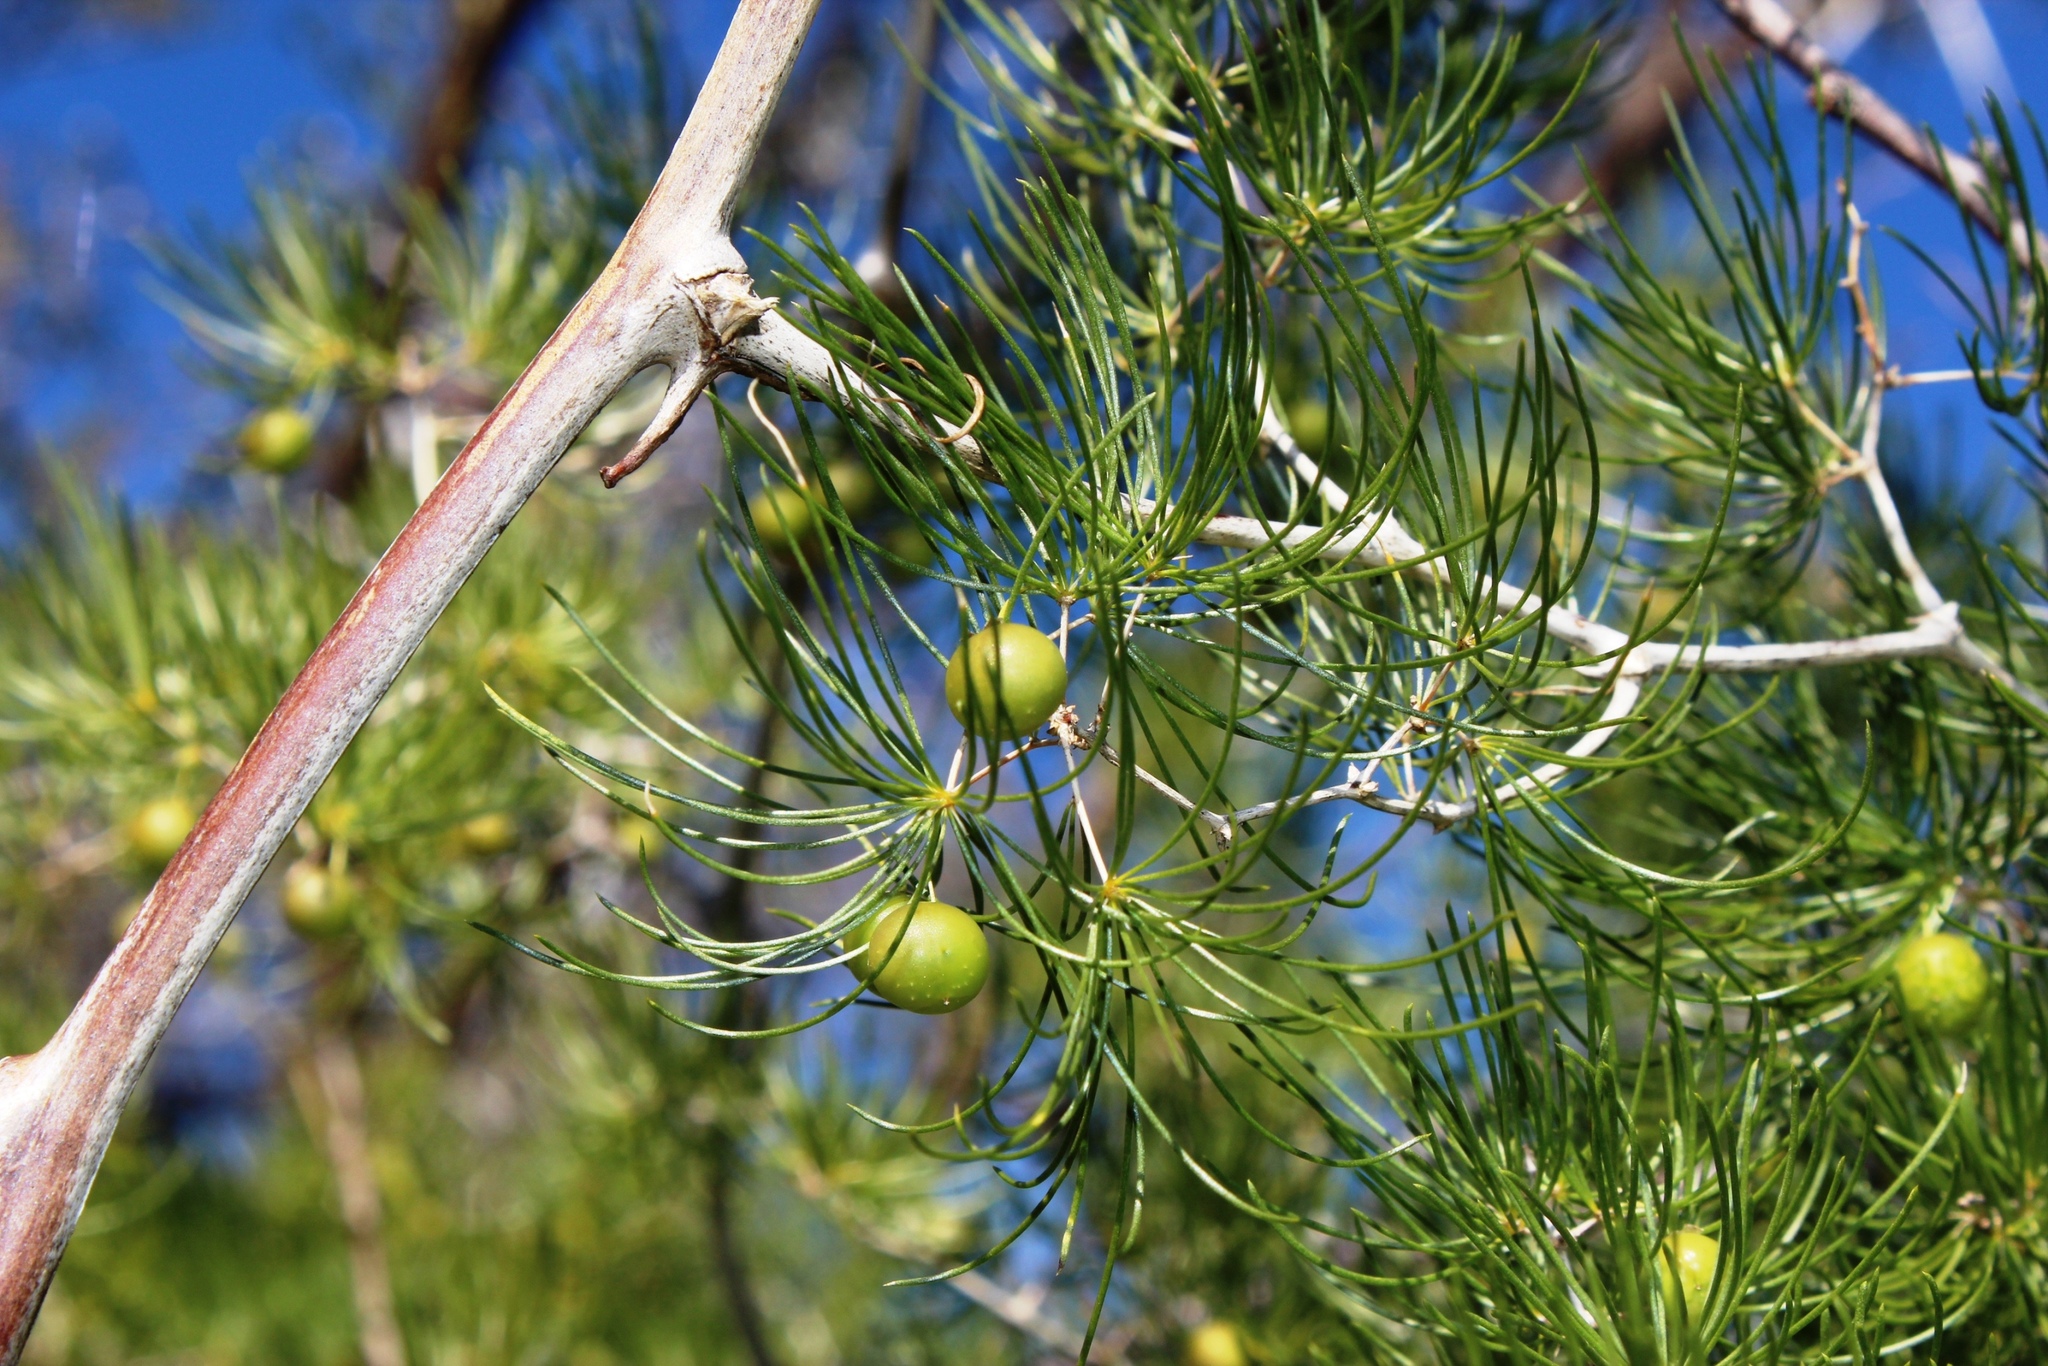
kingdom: Plantae
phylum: Tracheophyta
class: Liliopsida
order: Asparagales
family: Asparagaceae
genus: Asparagus
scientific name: Asparagus retrofractus
